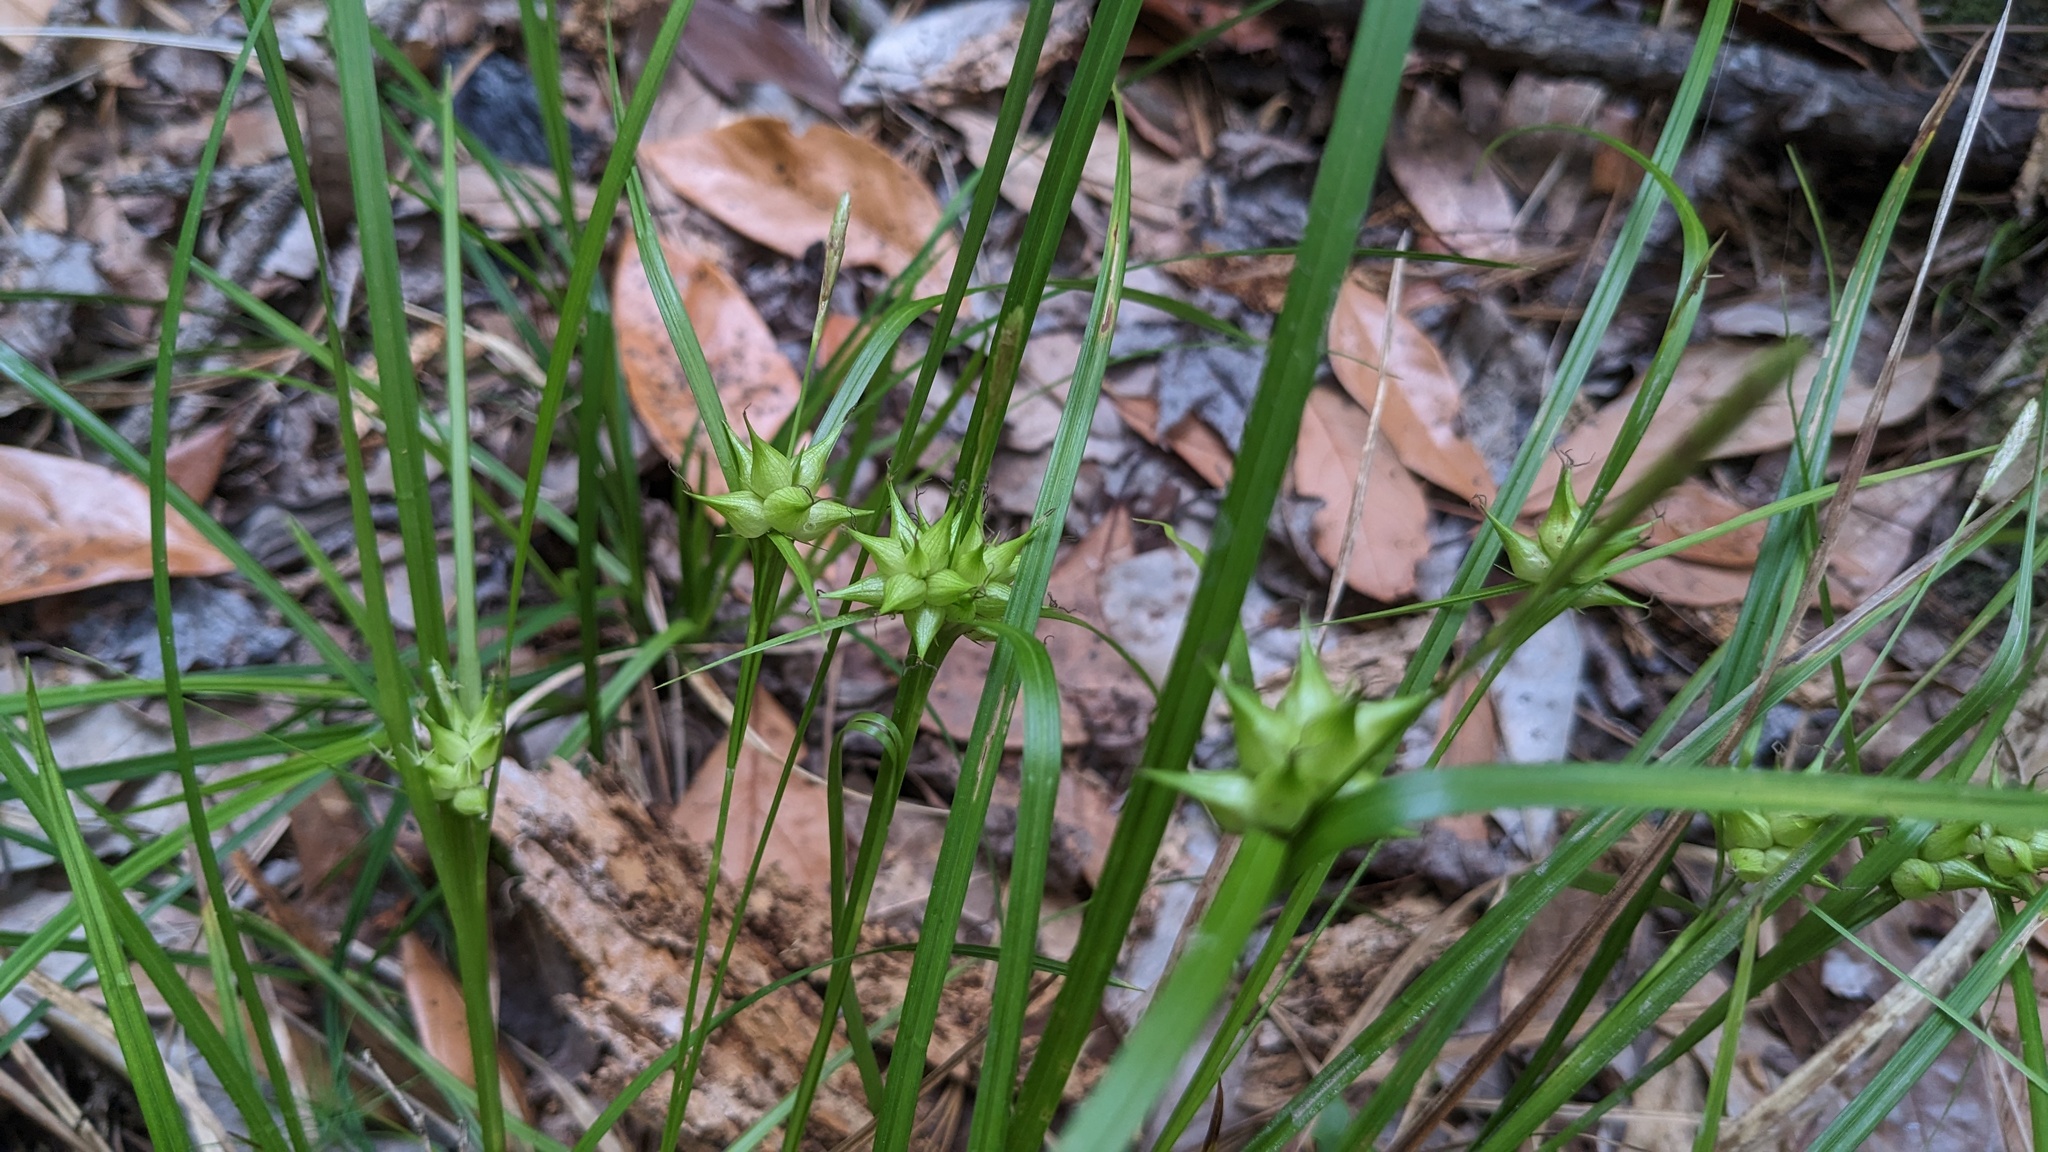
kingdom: Plantae
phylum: Tracheophyta
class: Liliopsida
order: Poales
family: Cyperaceae
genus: Carex
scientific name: Carex intumescens
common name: Greater bladder sedge
